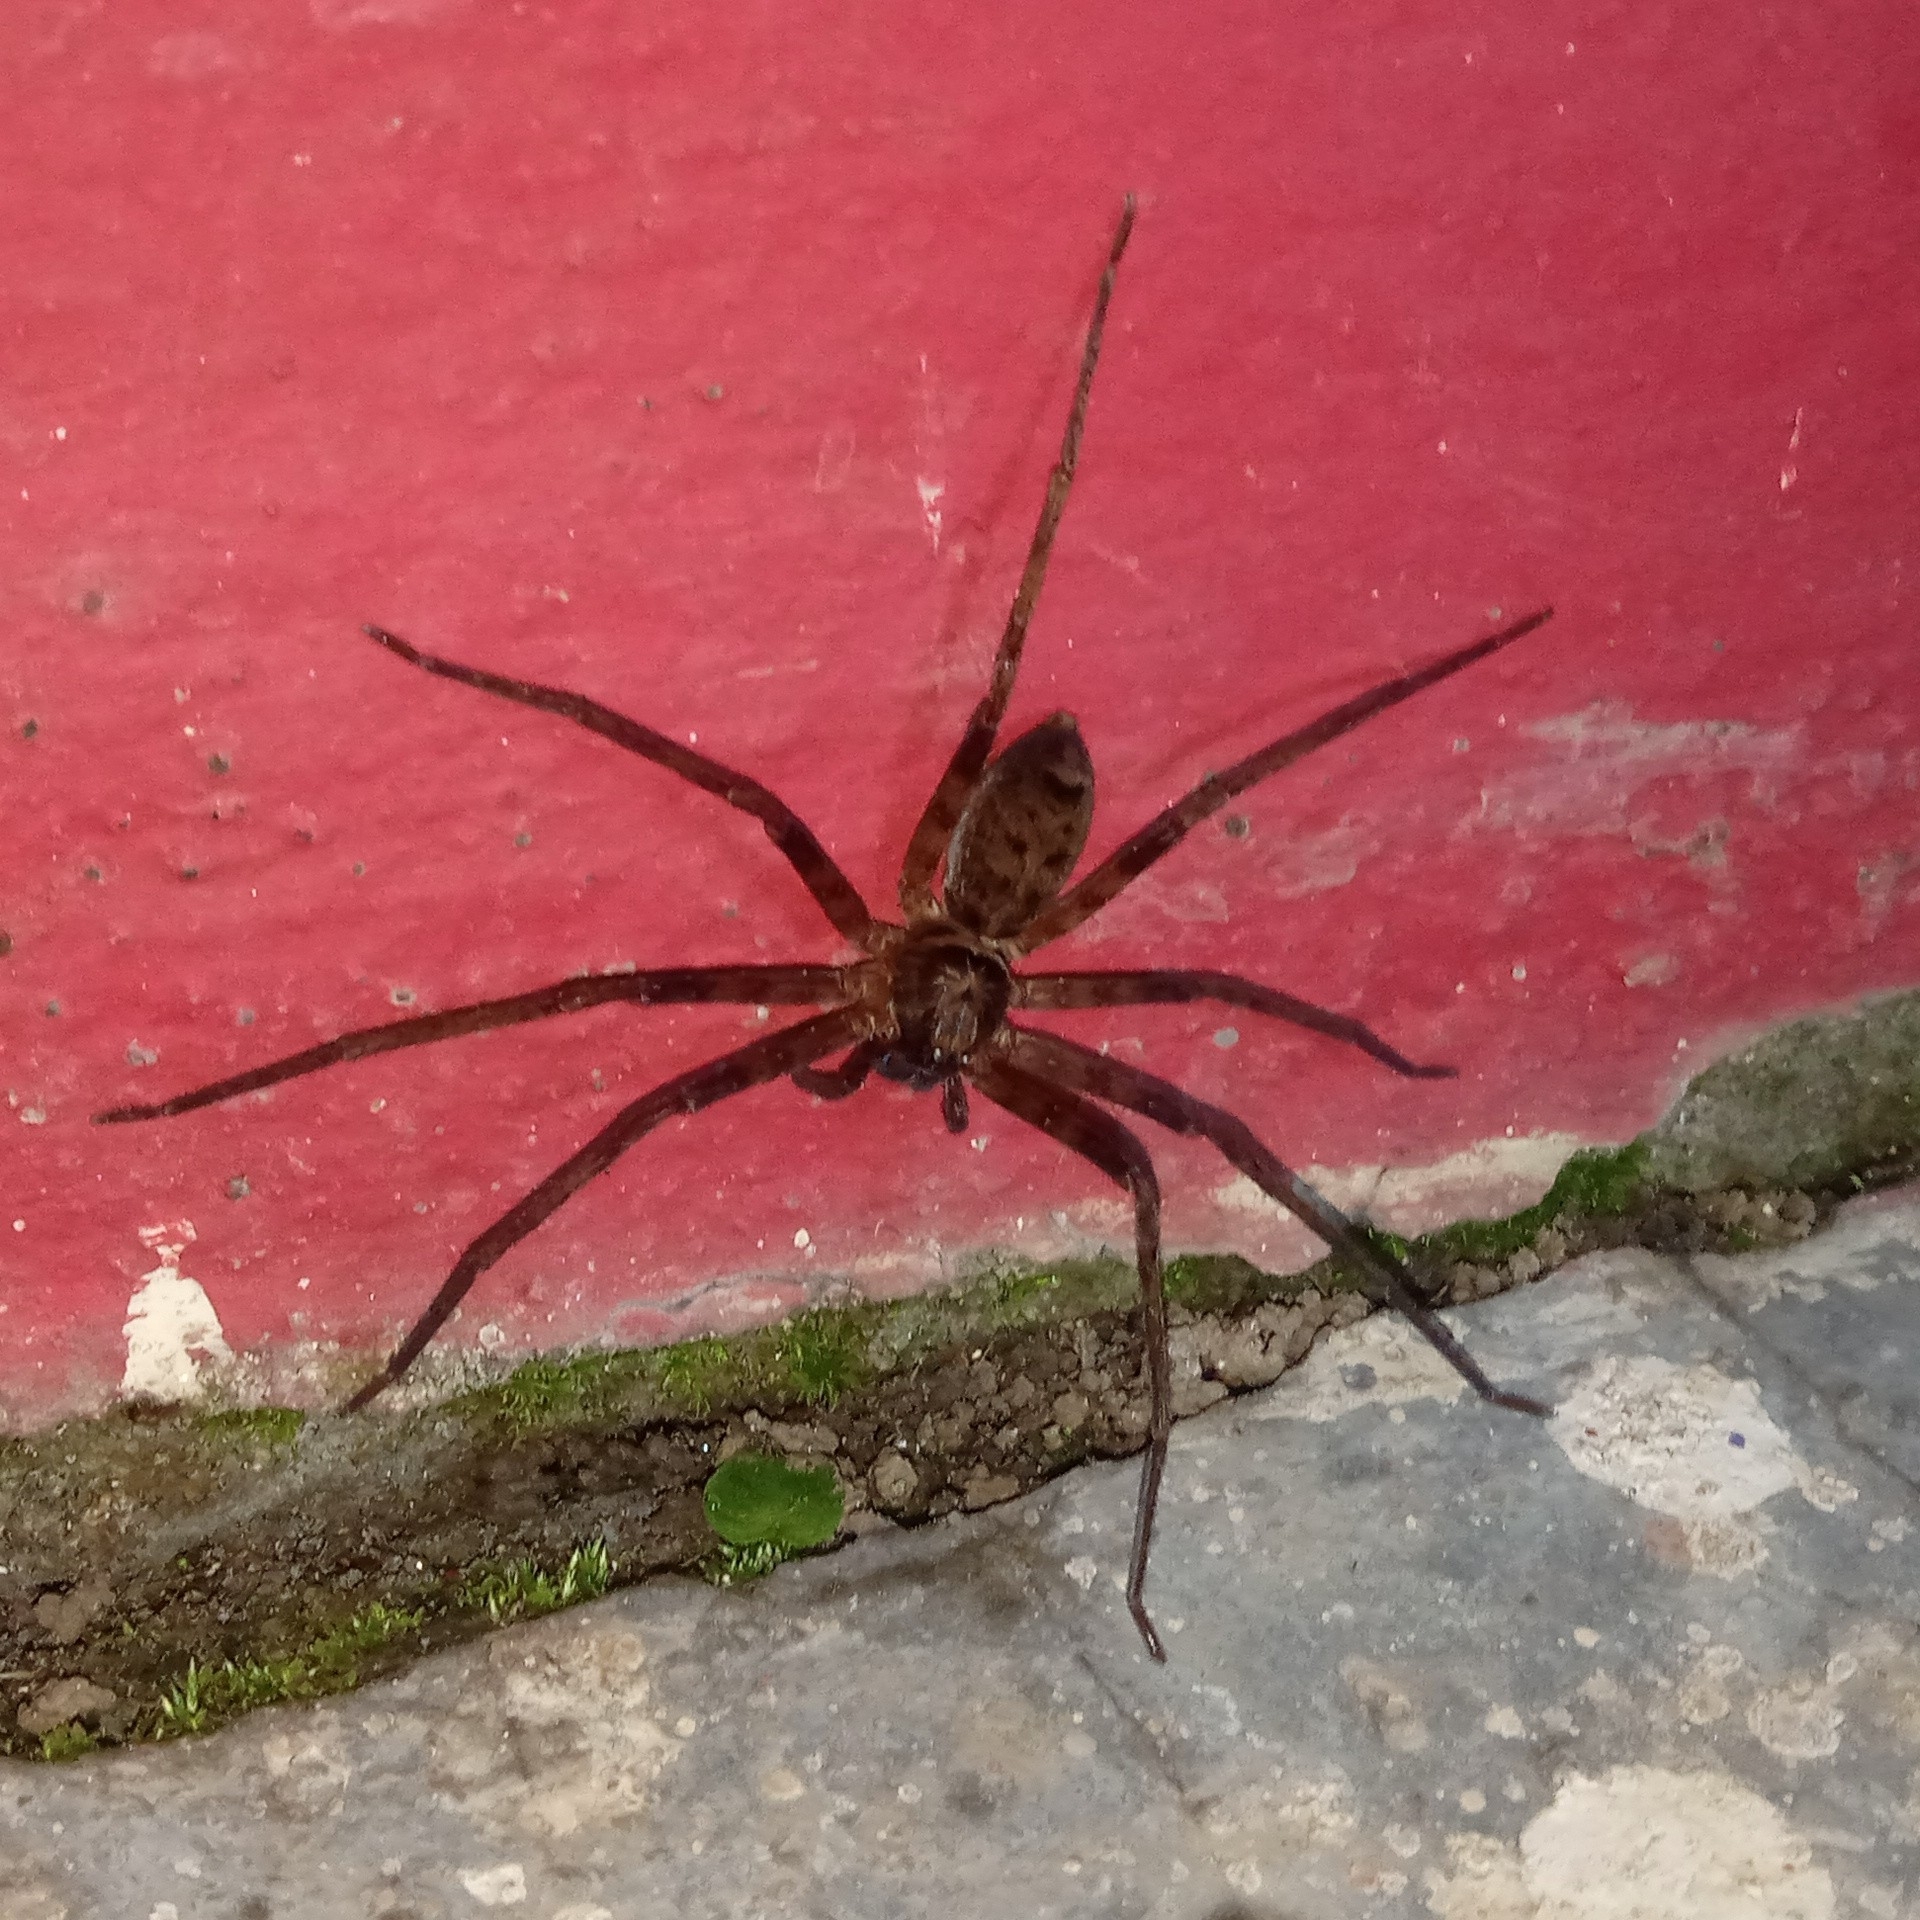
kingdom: Animalia
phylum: Arthropoda
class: Arachnida
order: Araneae
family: Sparassidae
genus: Heteropoda
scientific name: Heteropoda venatoria
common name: Huntsman spider
